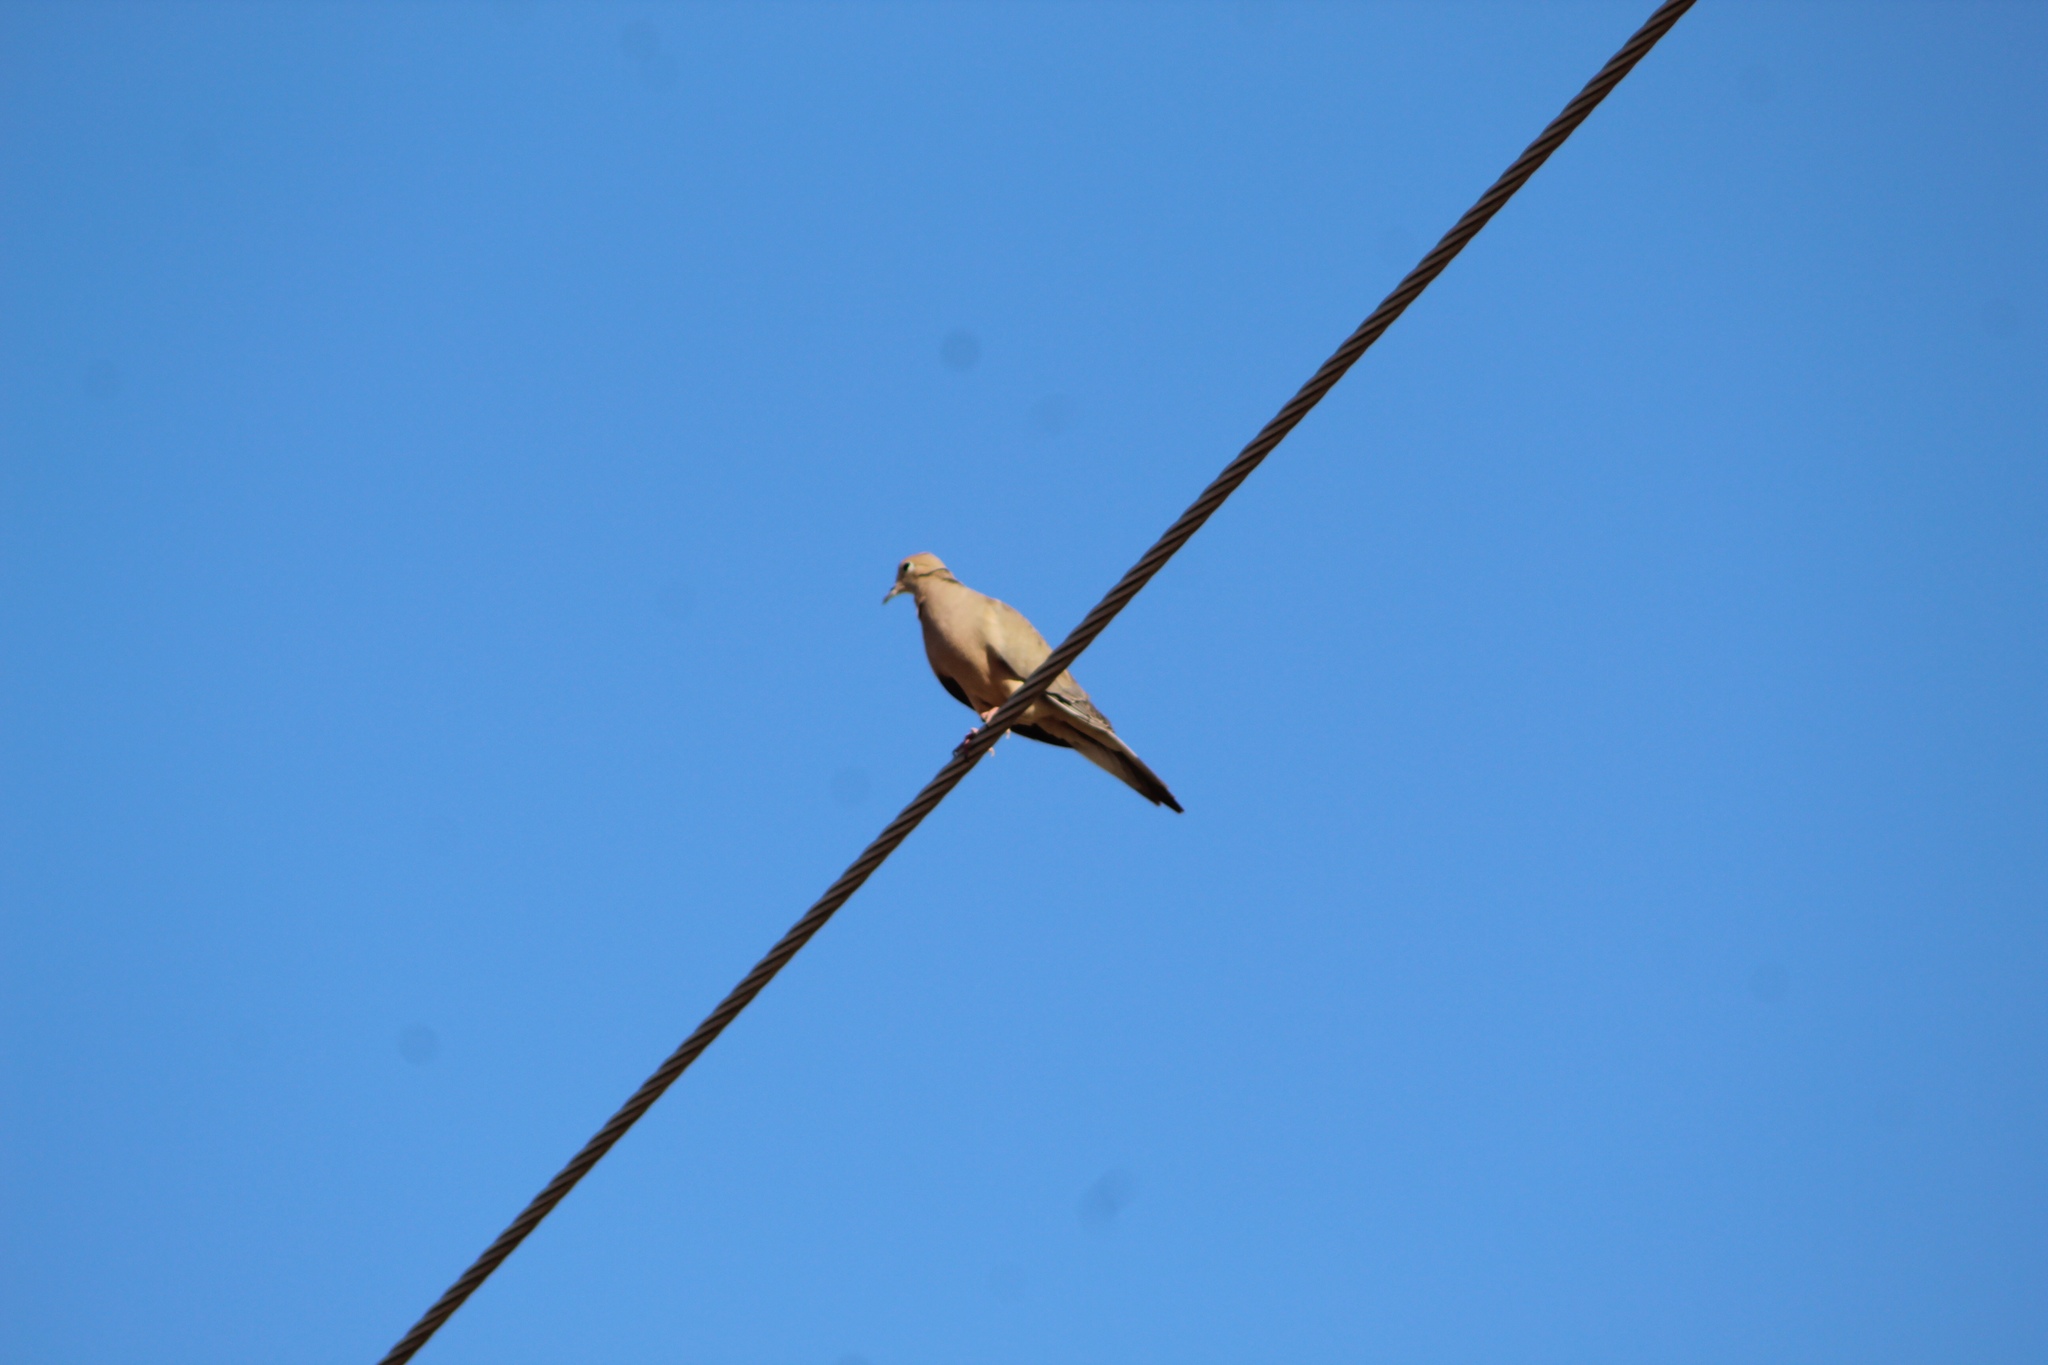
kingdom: Animalia
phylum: Chordata
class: Aves
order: Columbiformes
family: Columbidae
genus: Zenaida
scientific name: Zenaida macroura
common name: Mourning dove
